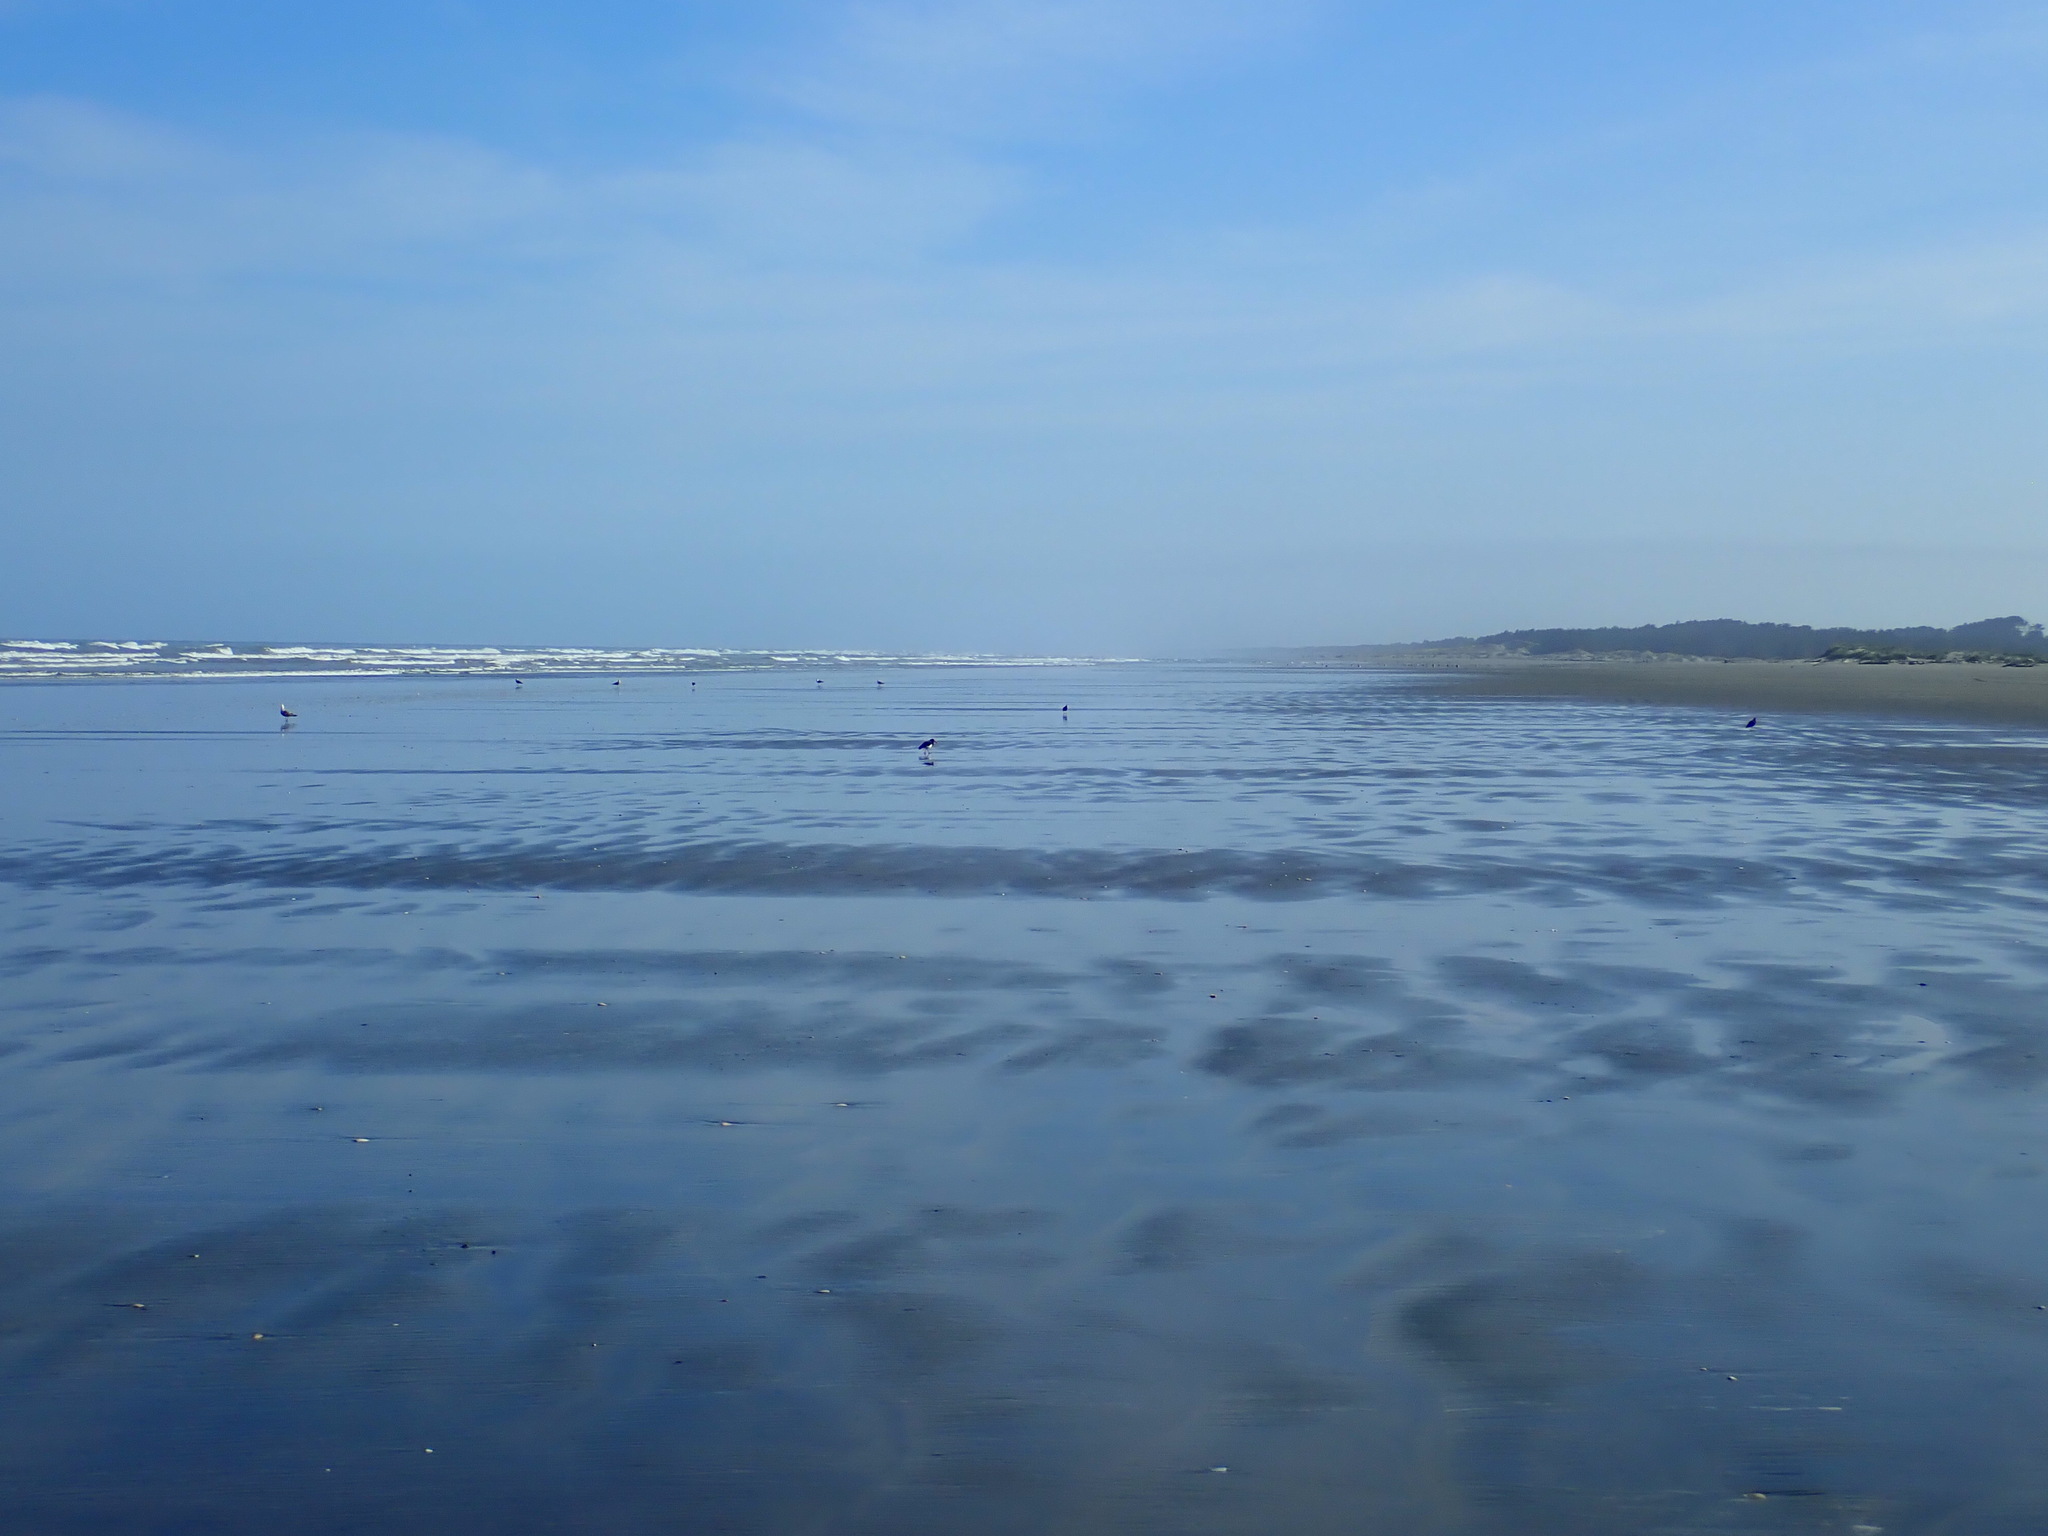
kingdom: Animalia
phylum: Chordata
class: Aves
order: Charadriiformes
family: Haematopodidae
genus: Haematopus
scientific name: Haematopus finschi
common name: South island oystercatcher
